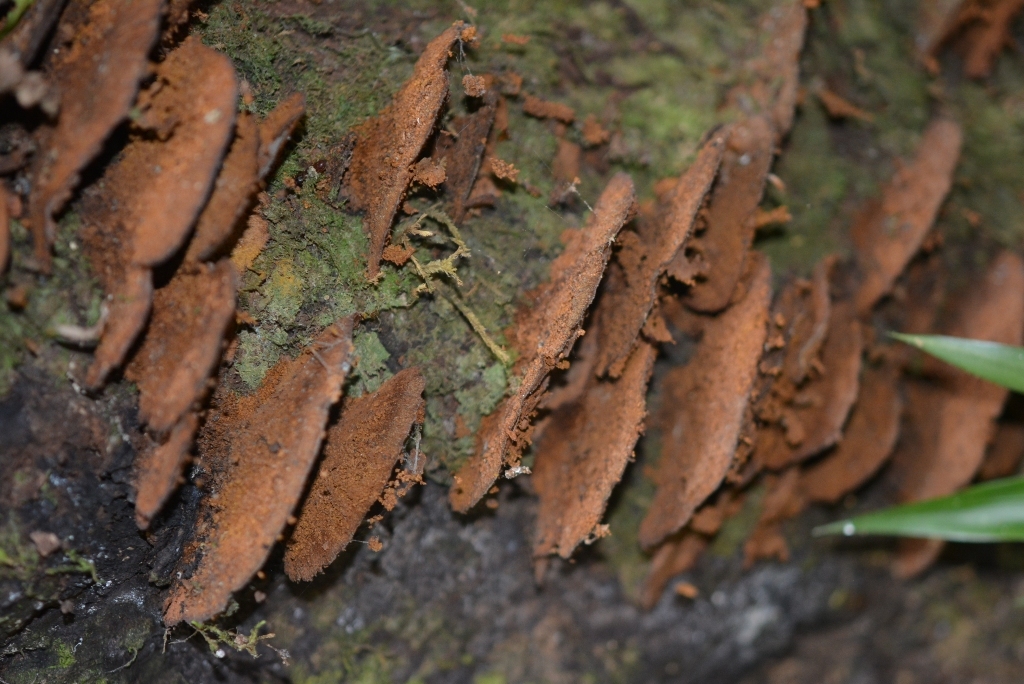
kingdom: Fungi
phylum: Basidiomycota
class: Agaricomycetes
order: Hymenochaetales
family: Hymenochaetaceae
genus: Phellinus
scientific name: Phellinus gilvus
